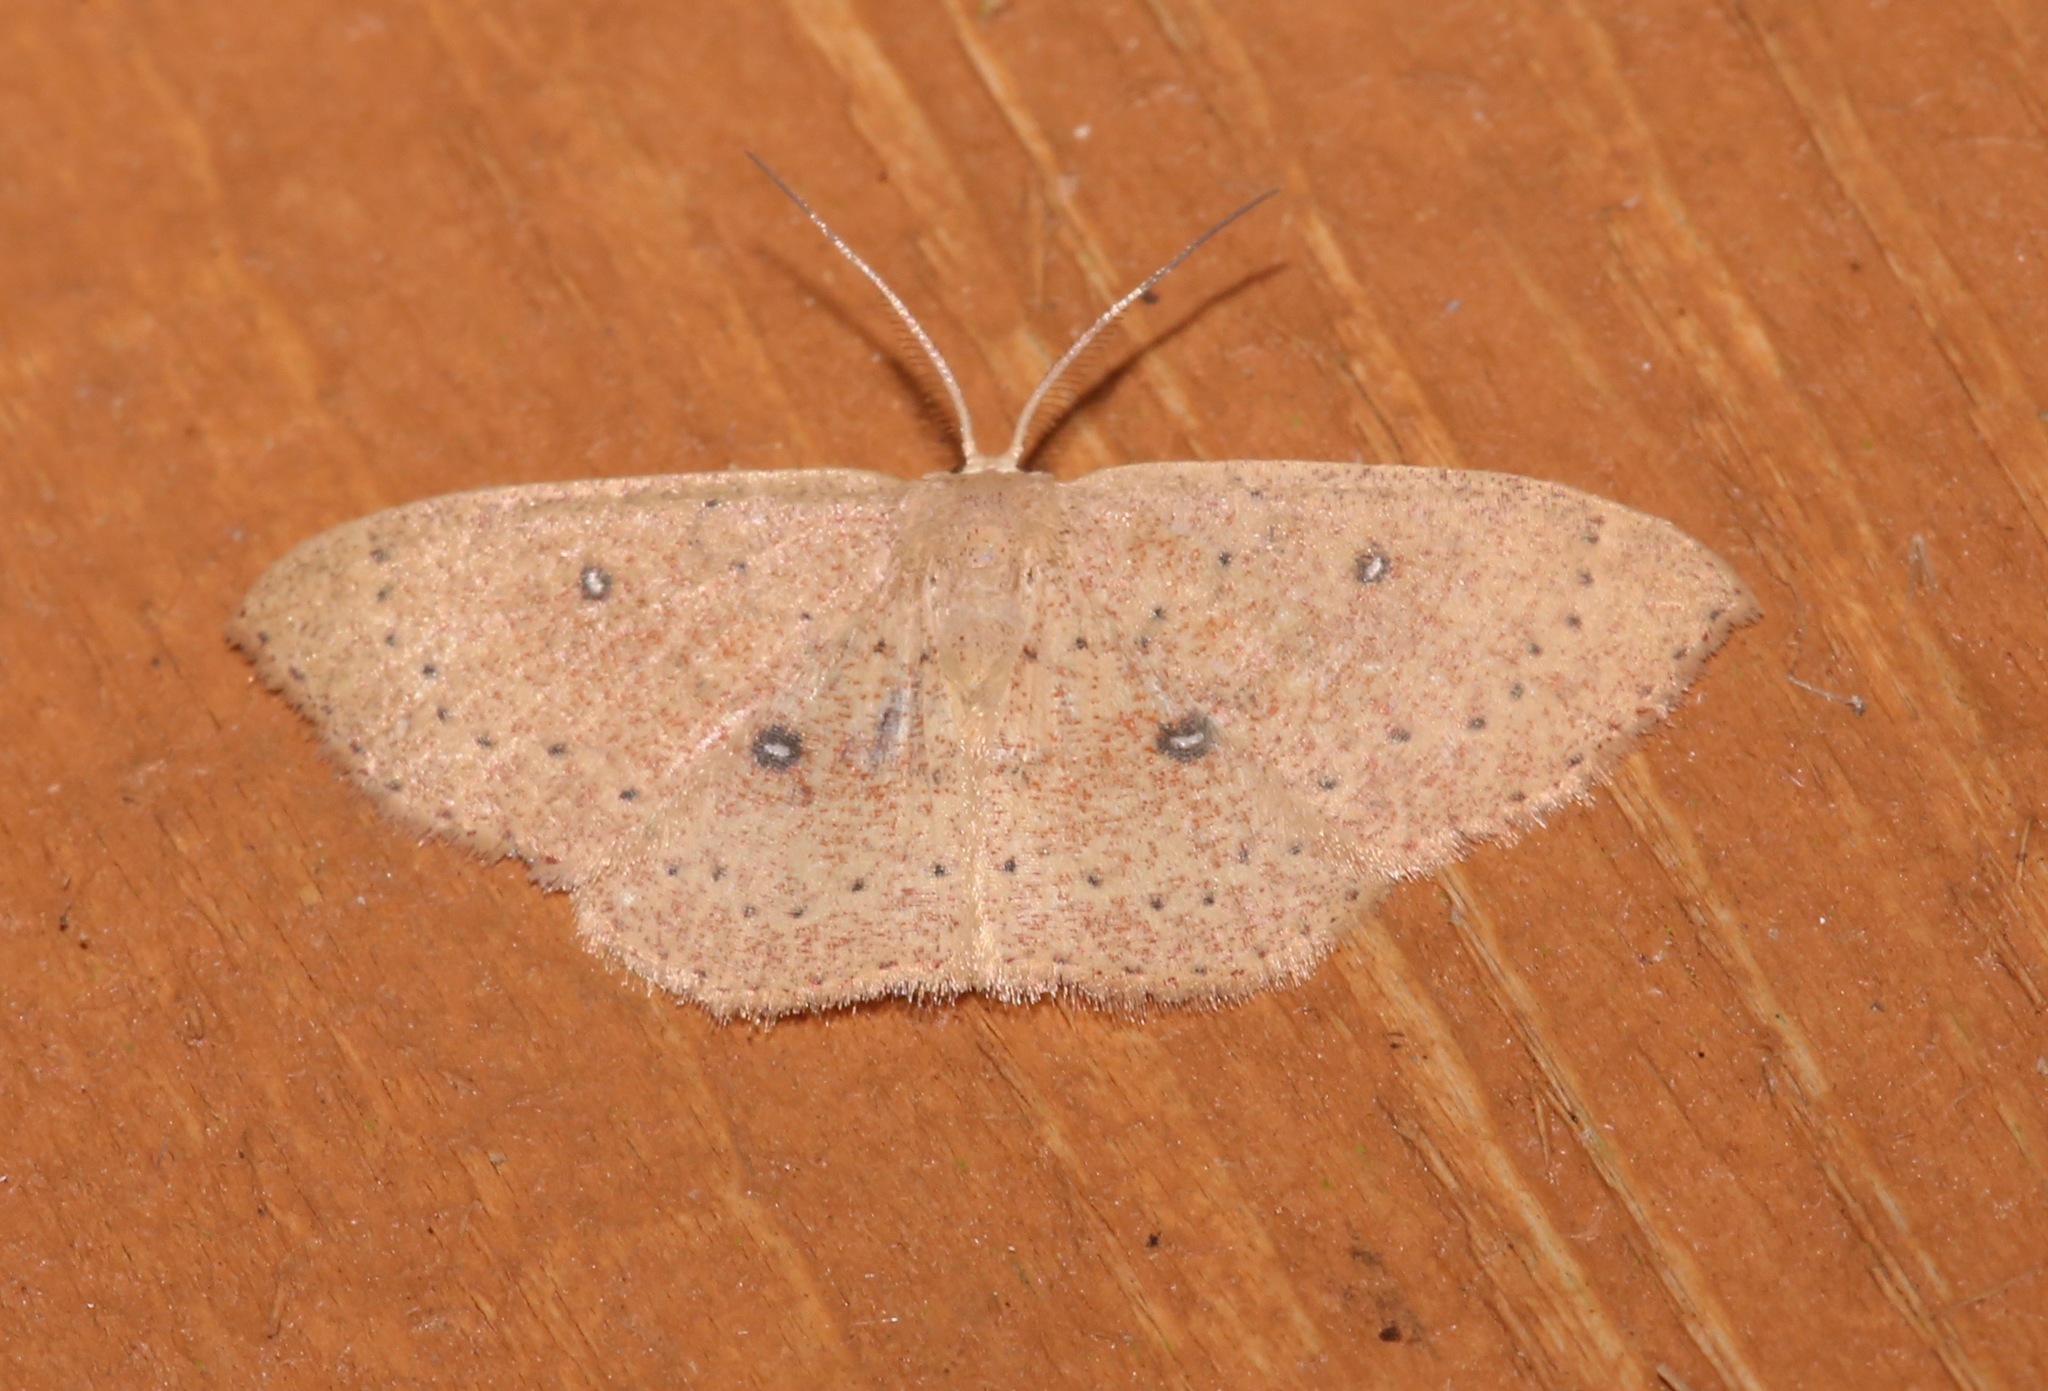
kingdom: Animalia
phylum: Arthropoda
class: Insecta
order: Lepidoptera
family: Geometridae
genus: Cyclophora
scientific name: Cyclophora packardi
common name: Packard's wave
